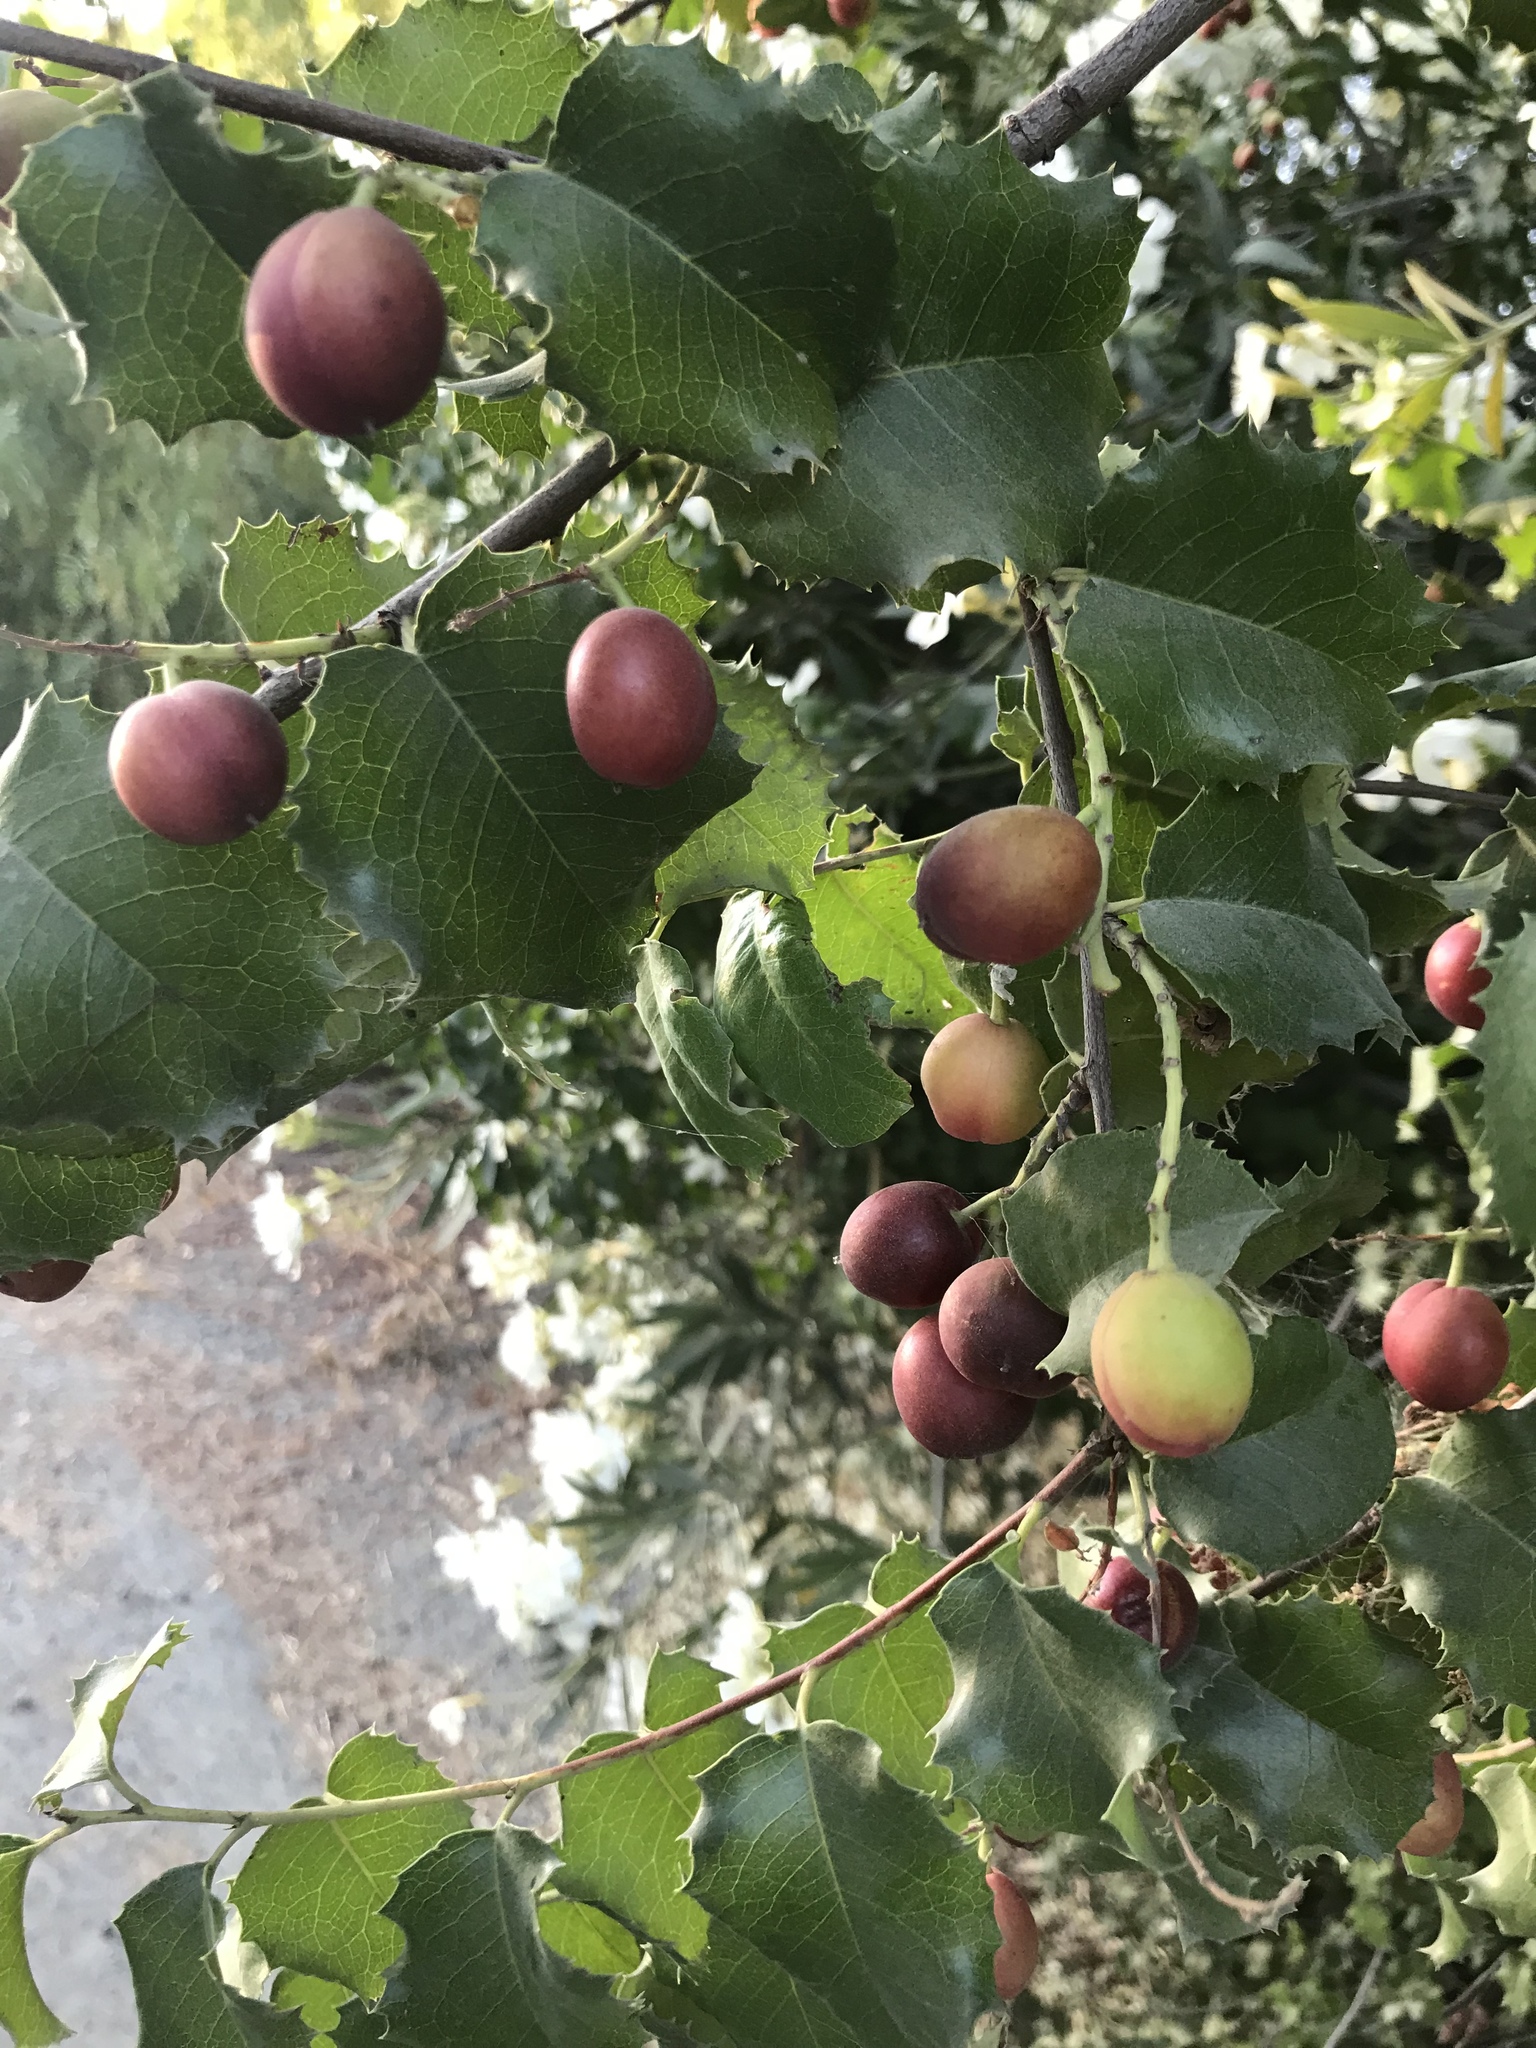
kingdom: Plantae
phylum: Tracheophyta
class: Magnoliopsida
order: Rosales
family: Rosaceae
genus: Prunus
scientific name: Prunus ilicifolia
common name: Hollyleaf cherry
